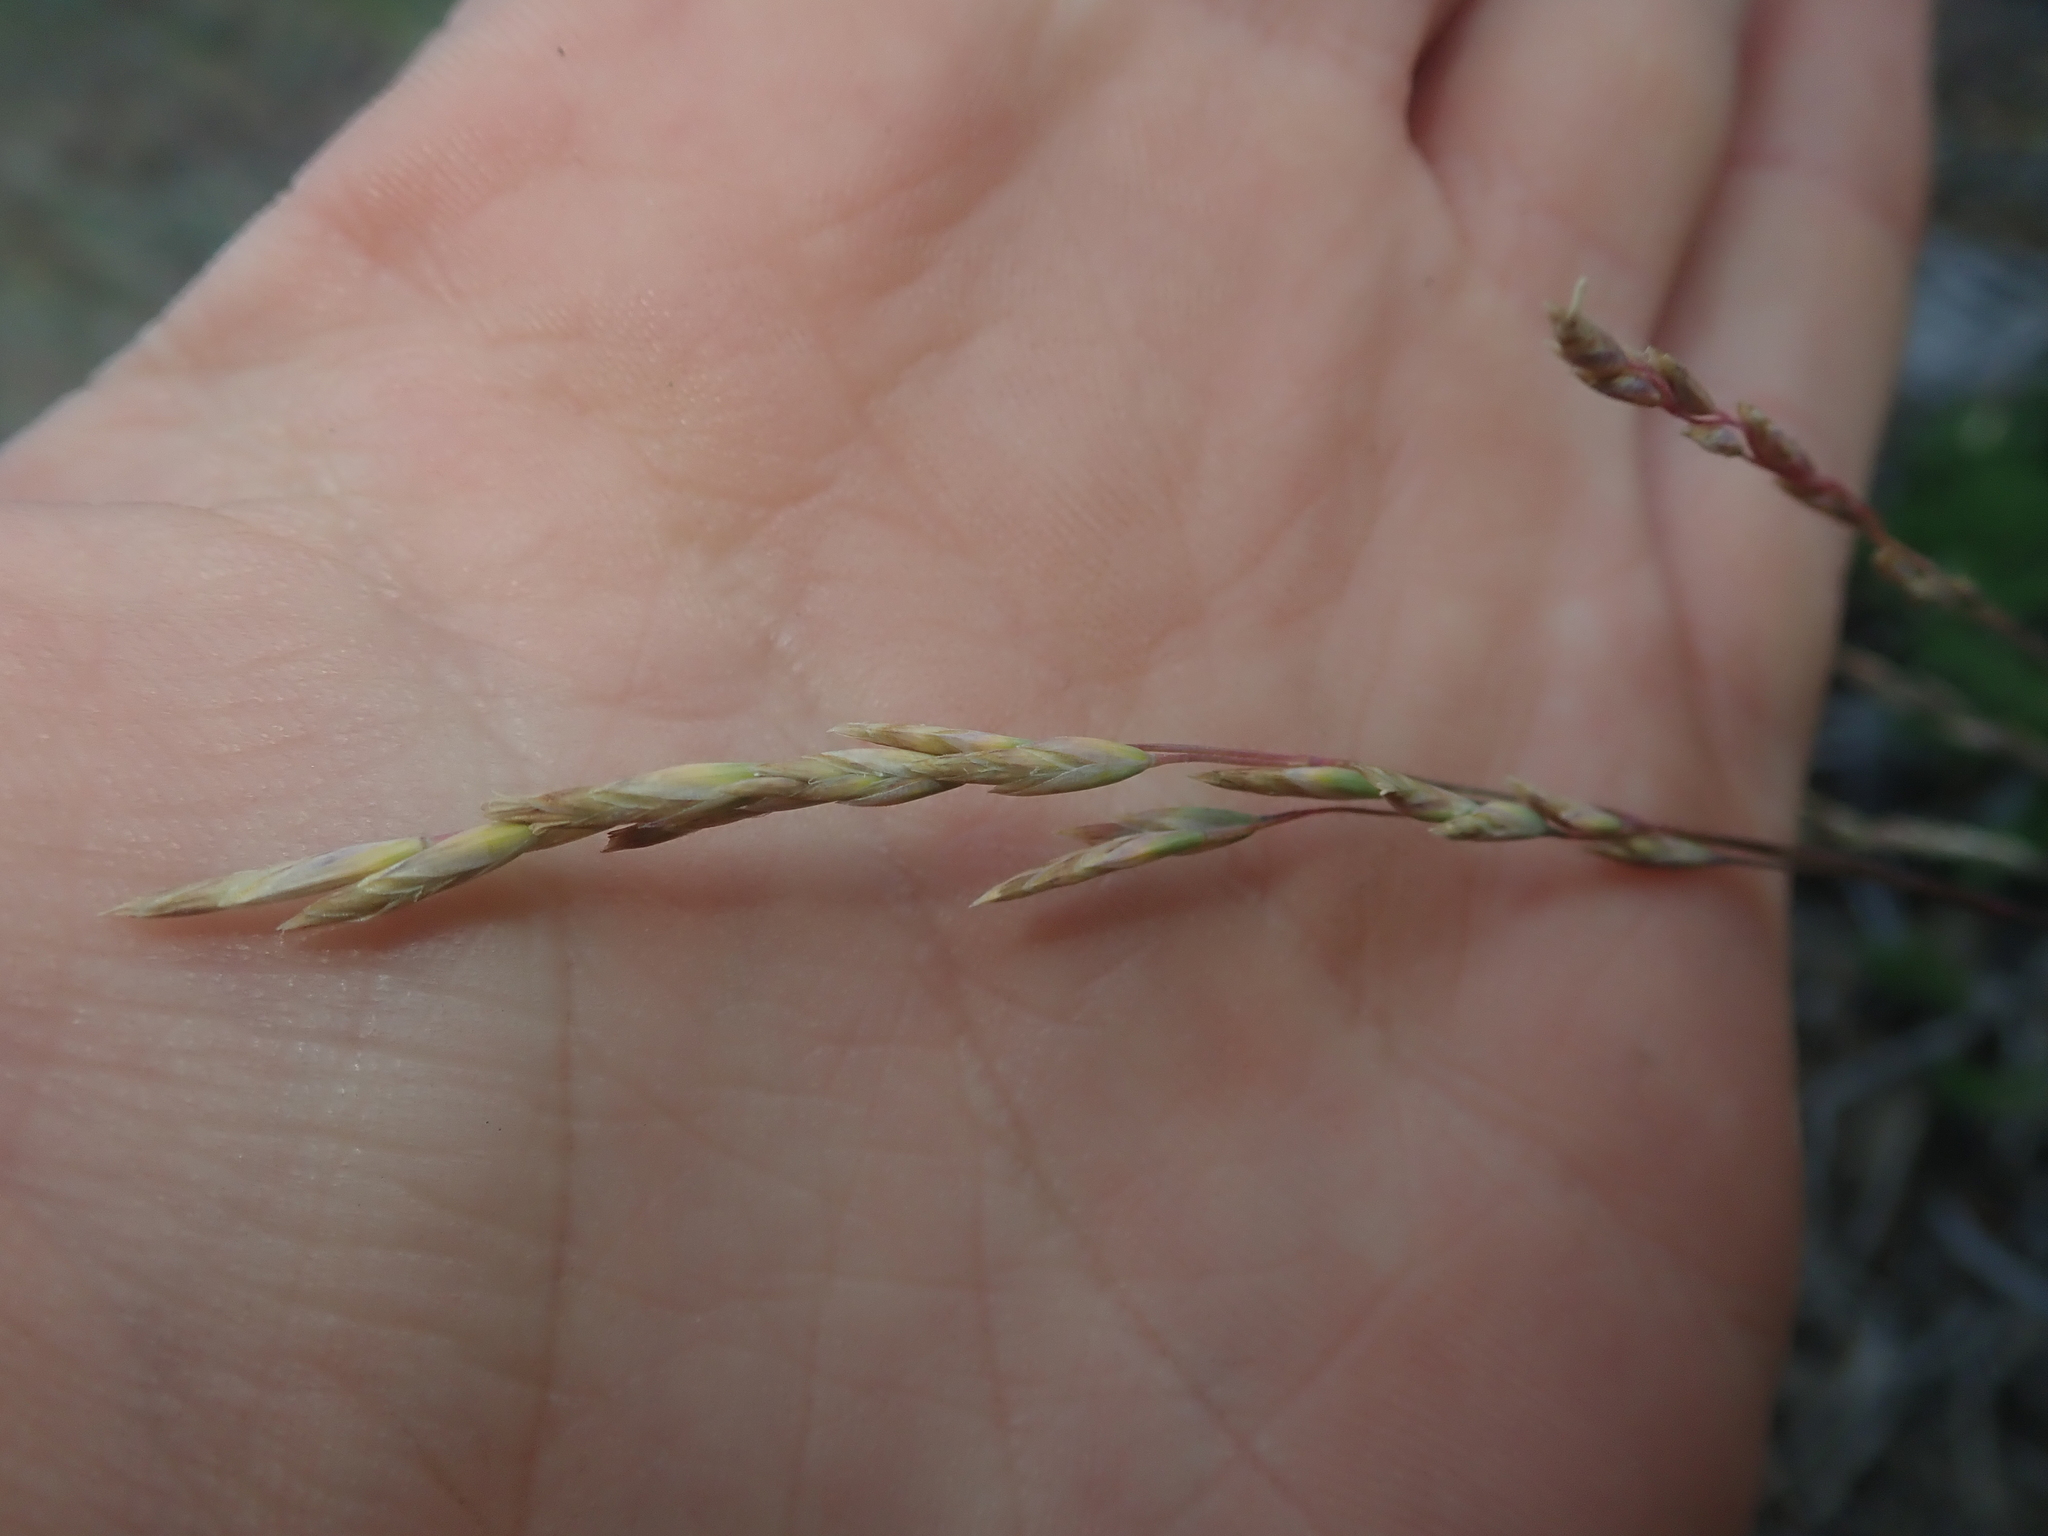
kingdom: Plantae
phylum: Tracheophyta
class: Liliopsida
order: Poales
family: Poaceae
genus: Poa
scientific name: Poa secunda
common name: Sandberg bluegrass
